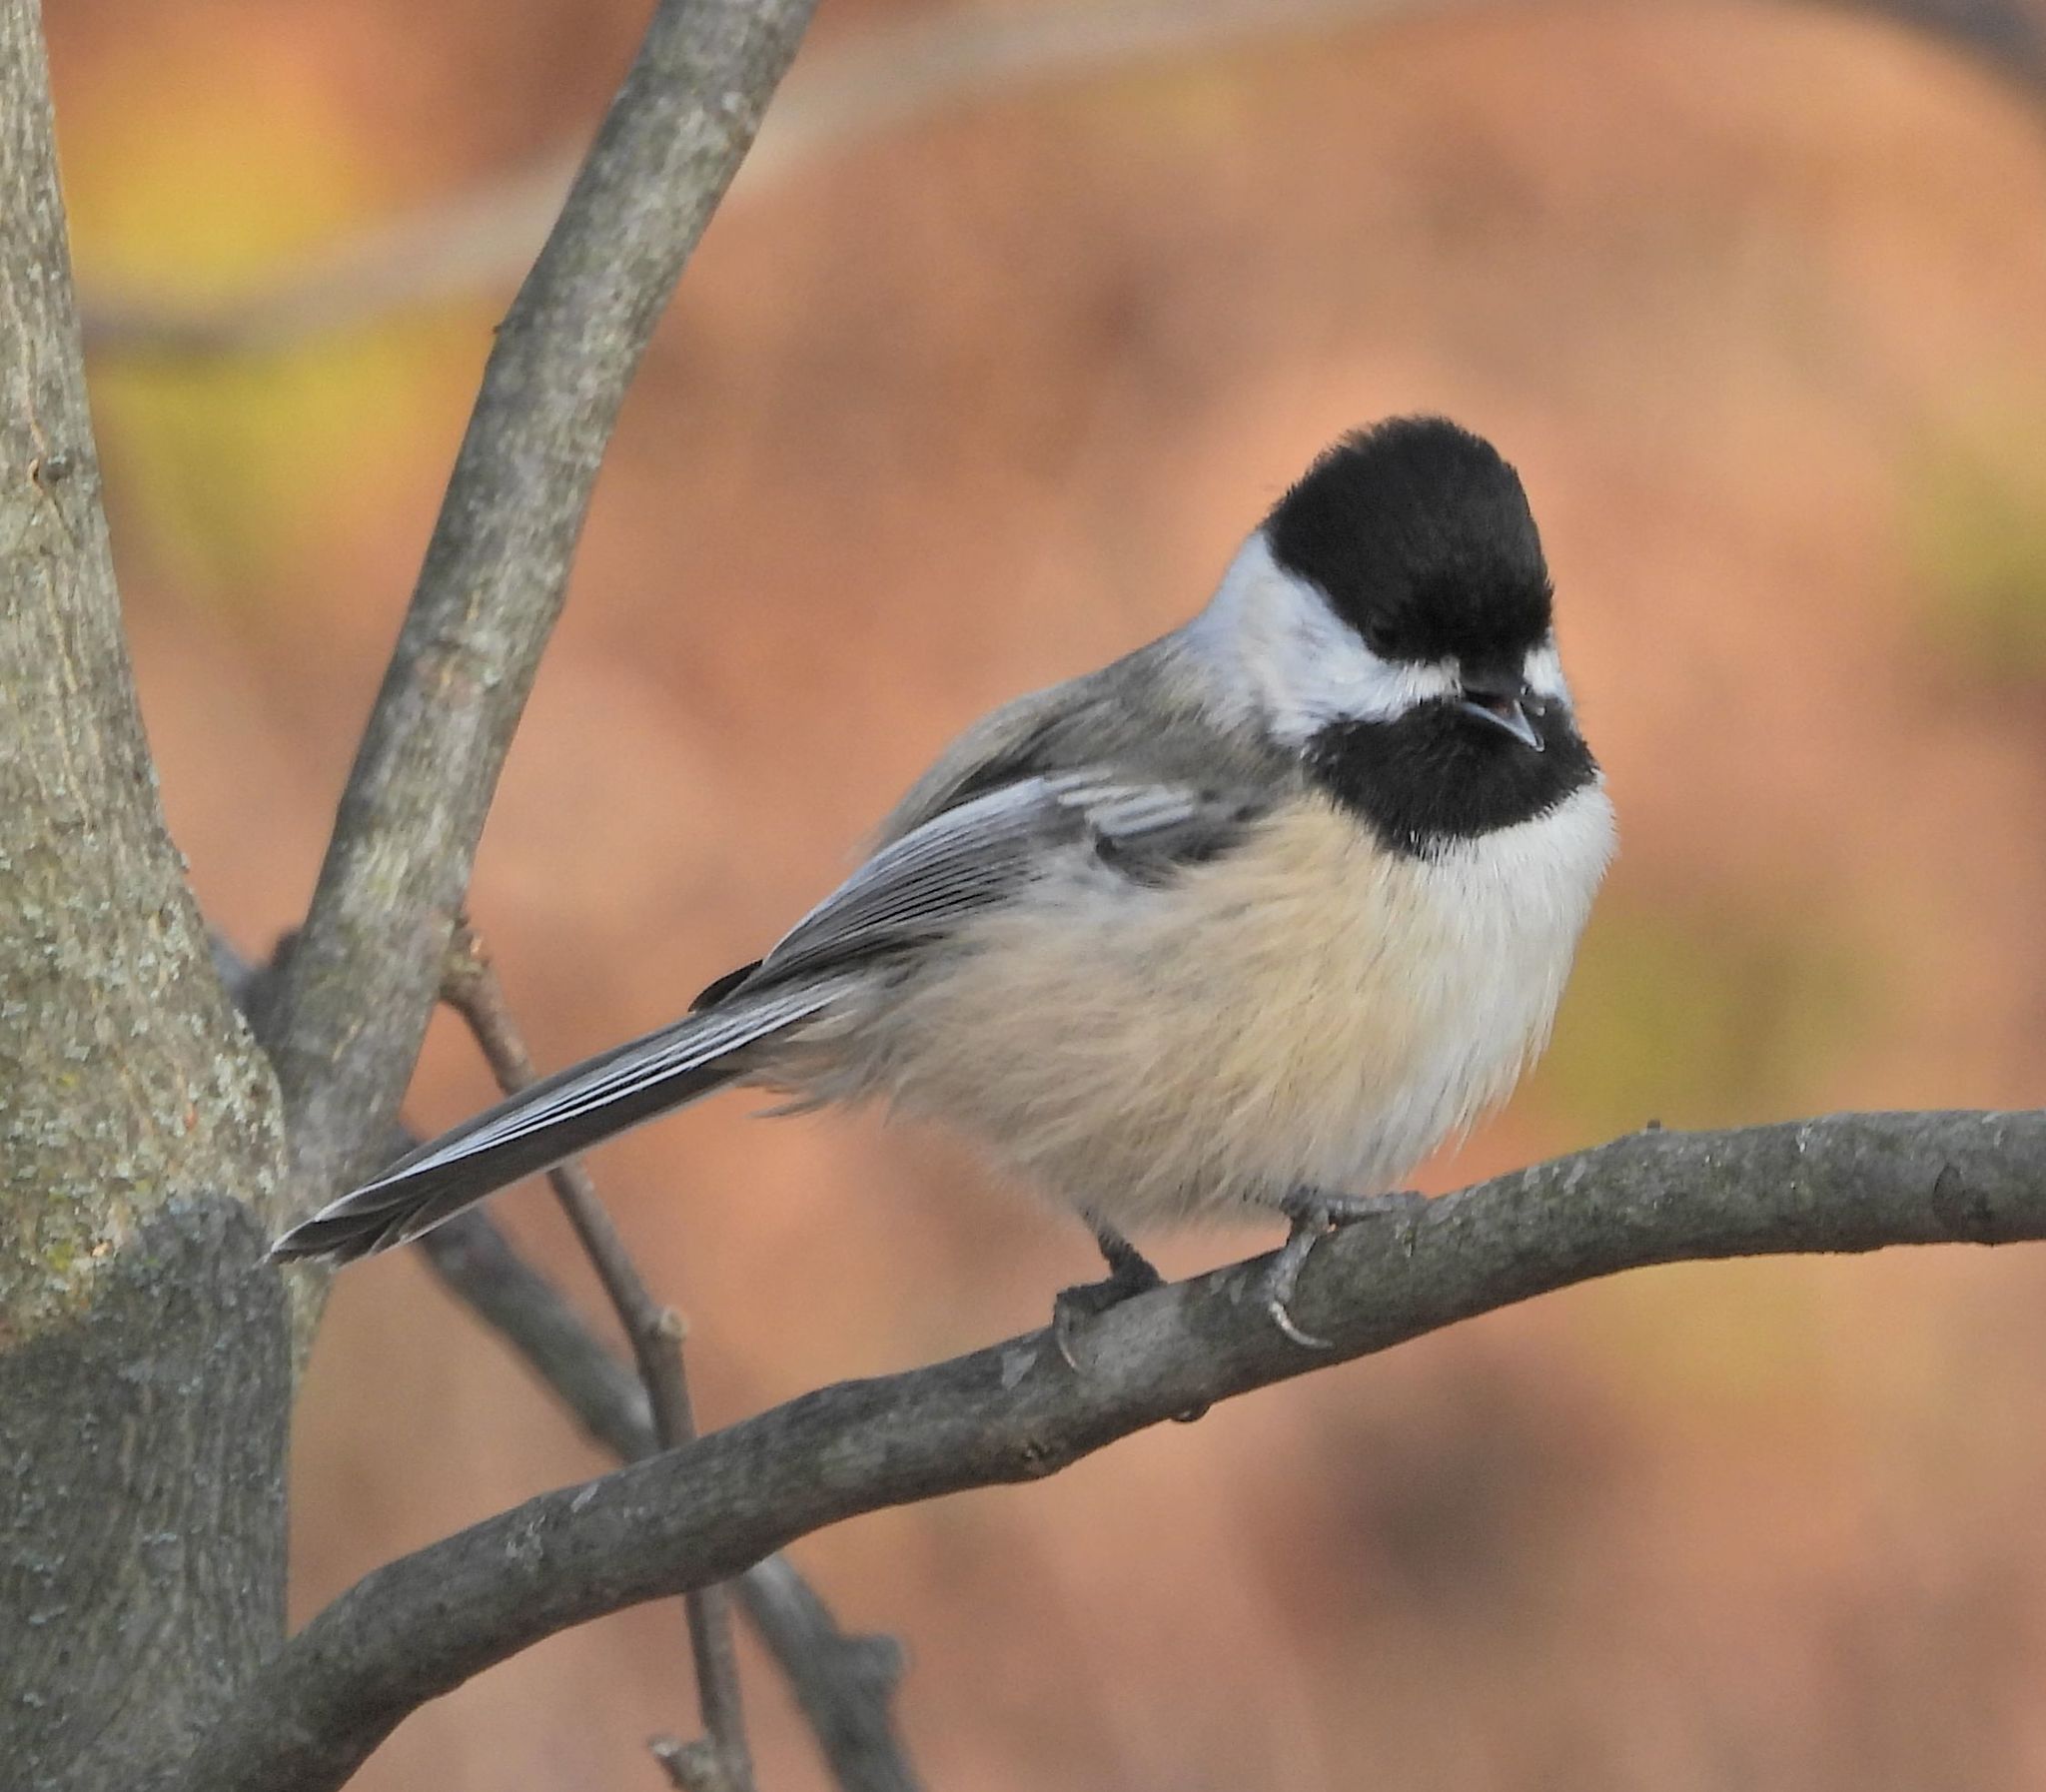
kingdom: Animalia
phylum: Chordata
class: Aves
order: Passeriformes
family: Paridae
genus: Poecile
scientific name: Poecile atricapillus
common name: Black-capped chickadee
